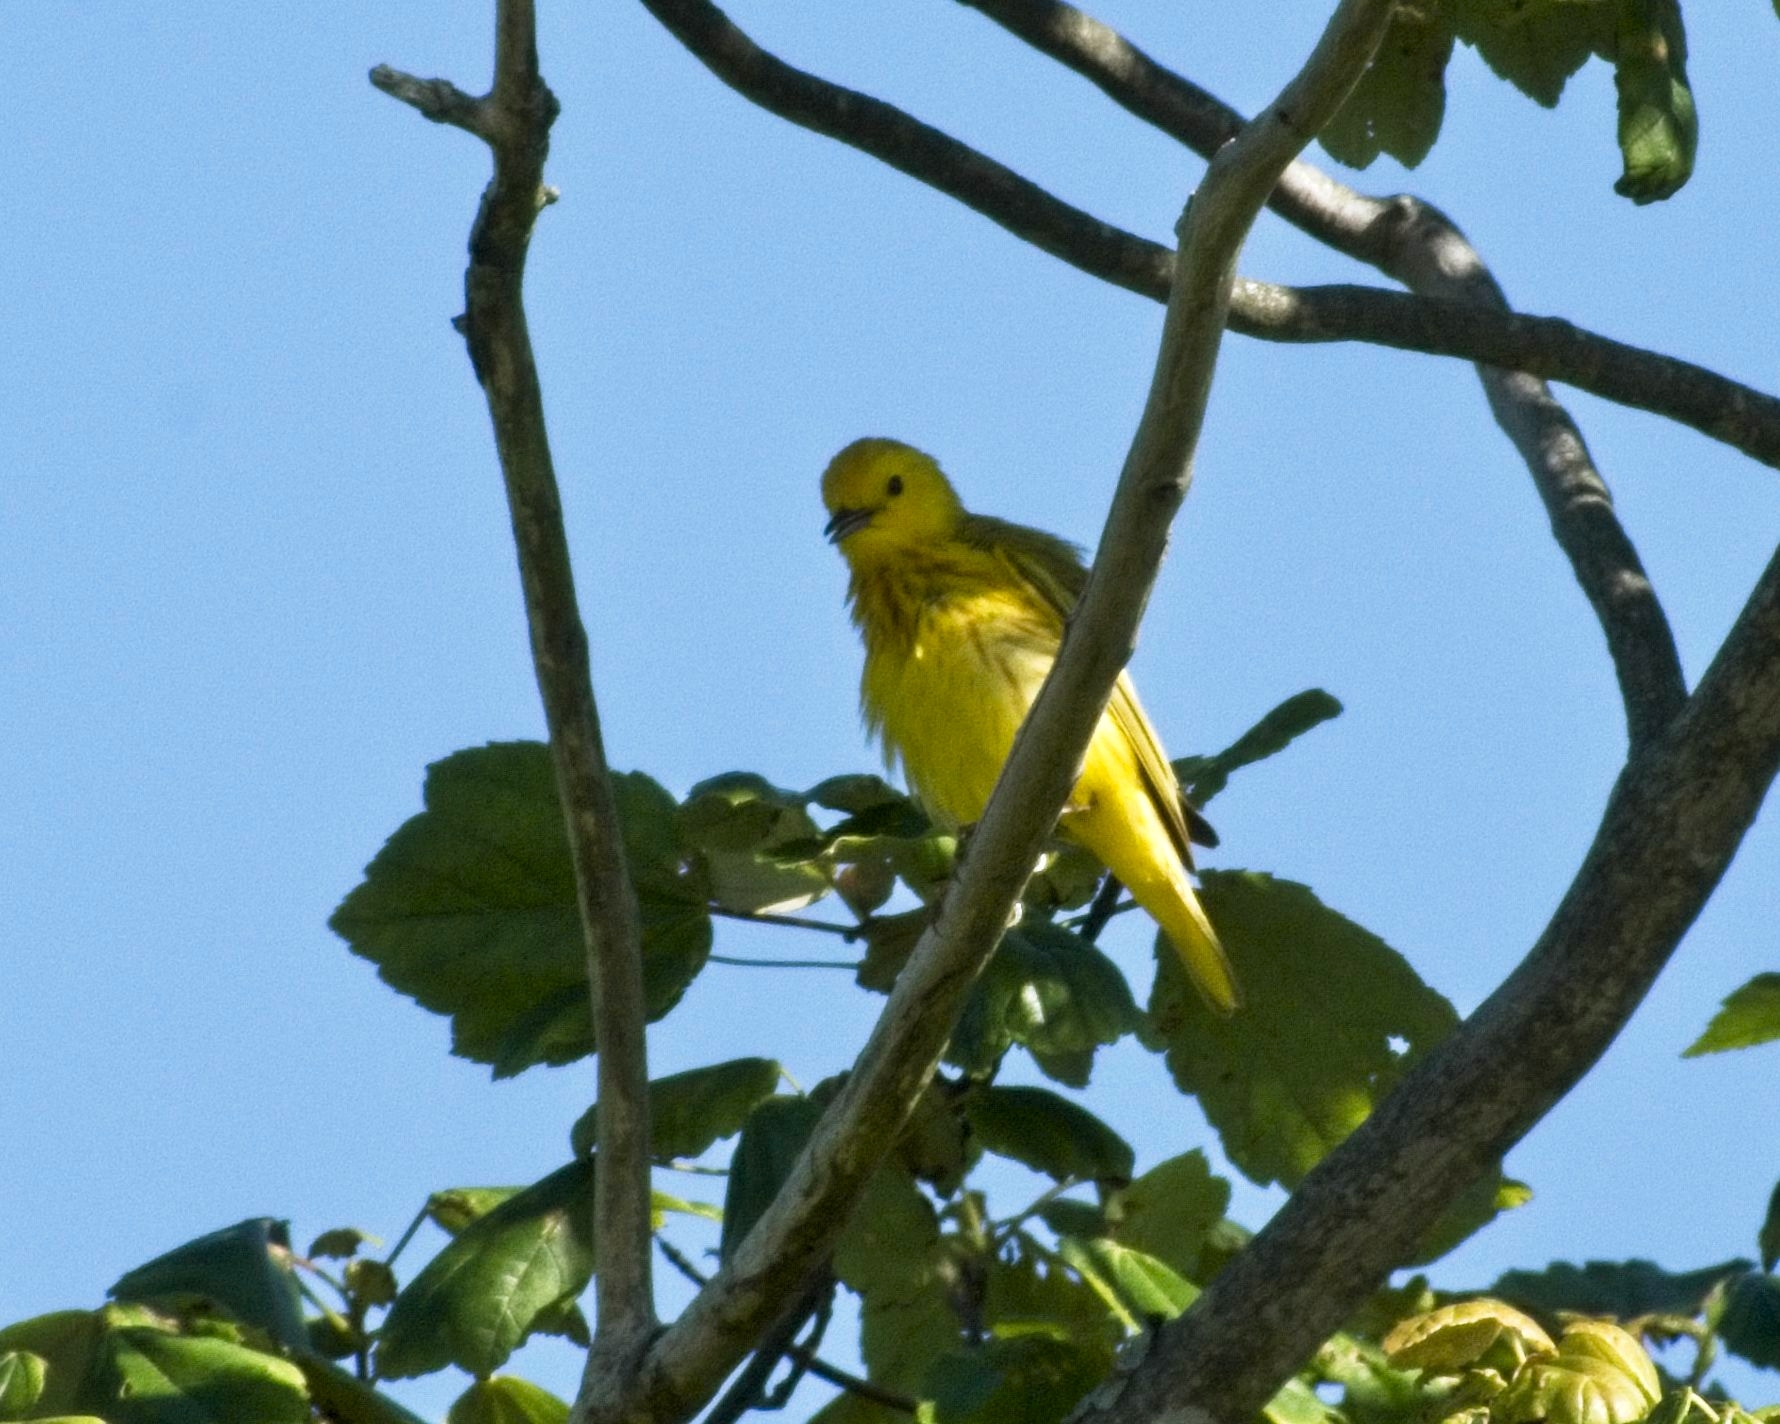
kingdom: Animalia
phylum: Chordata
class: Aves
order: Passeriformes
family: Parulidae
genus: Setophaga
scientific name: Setophaga petechia
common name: Yellow warbler
